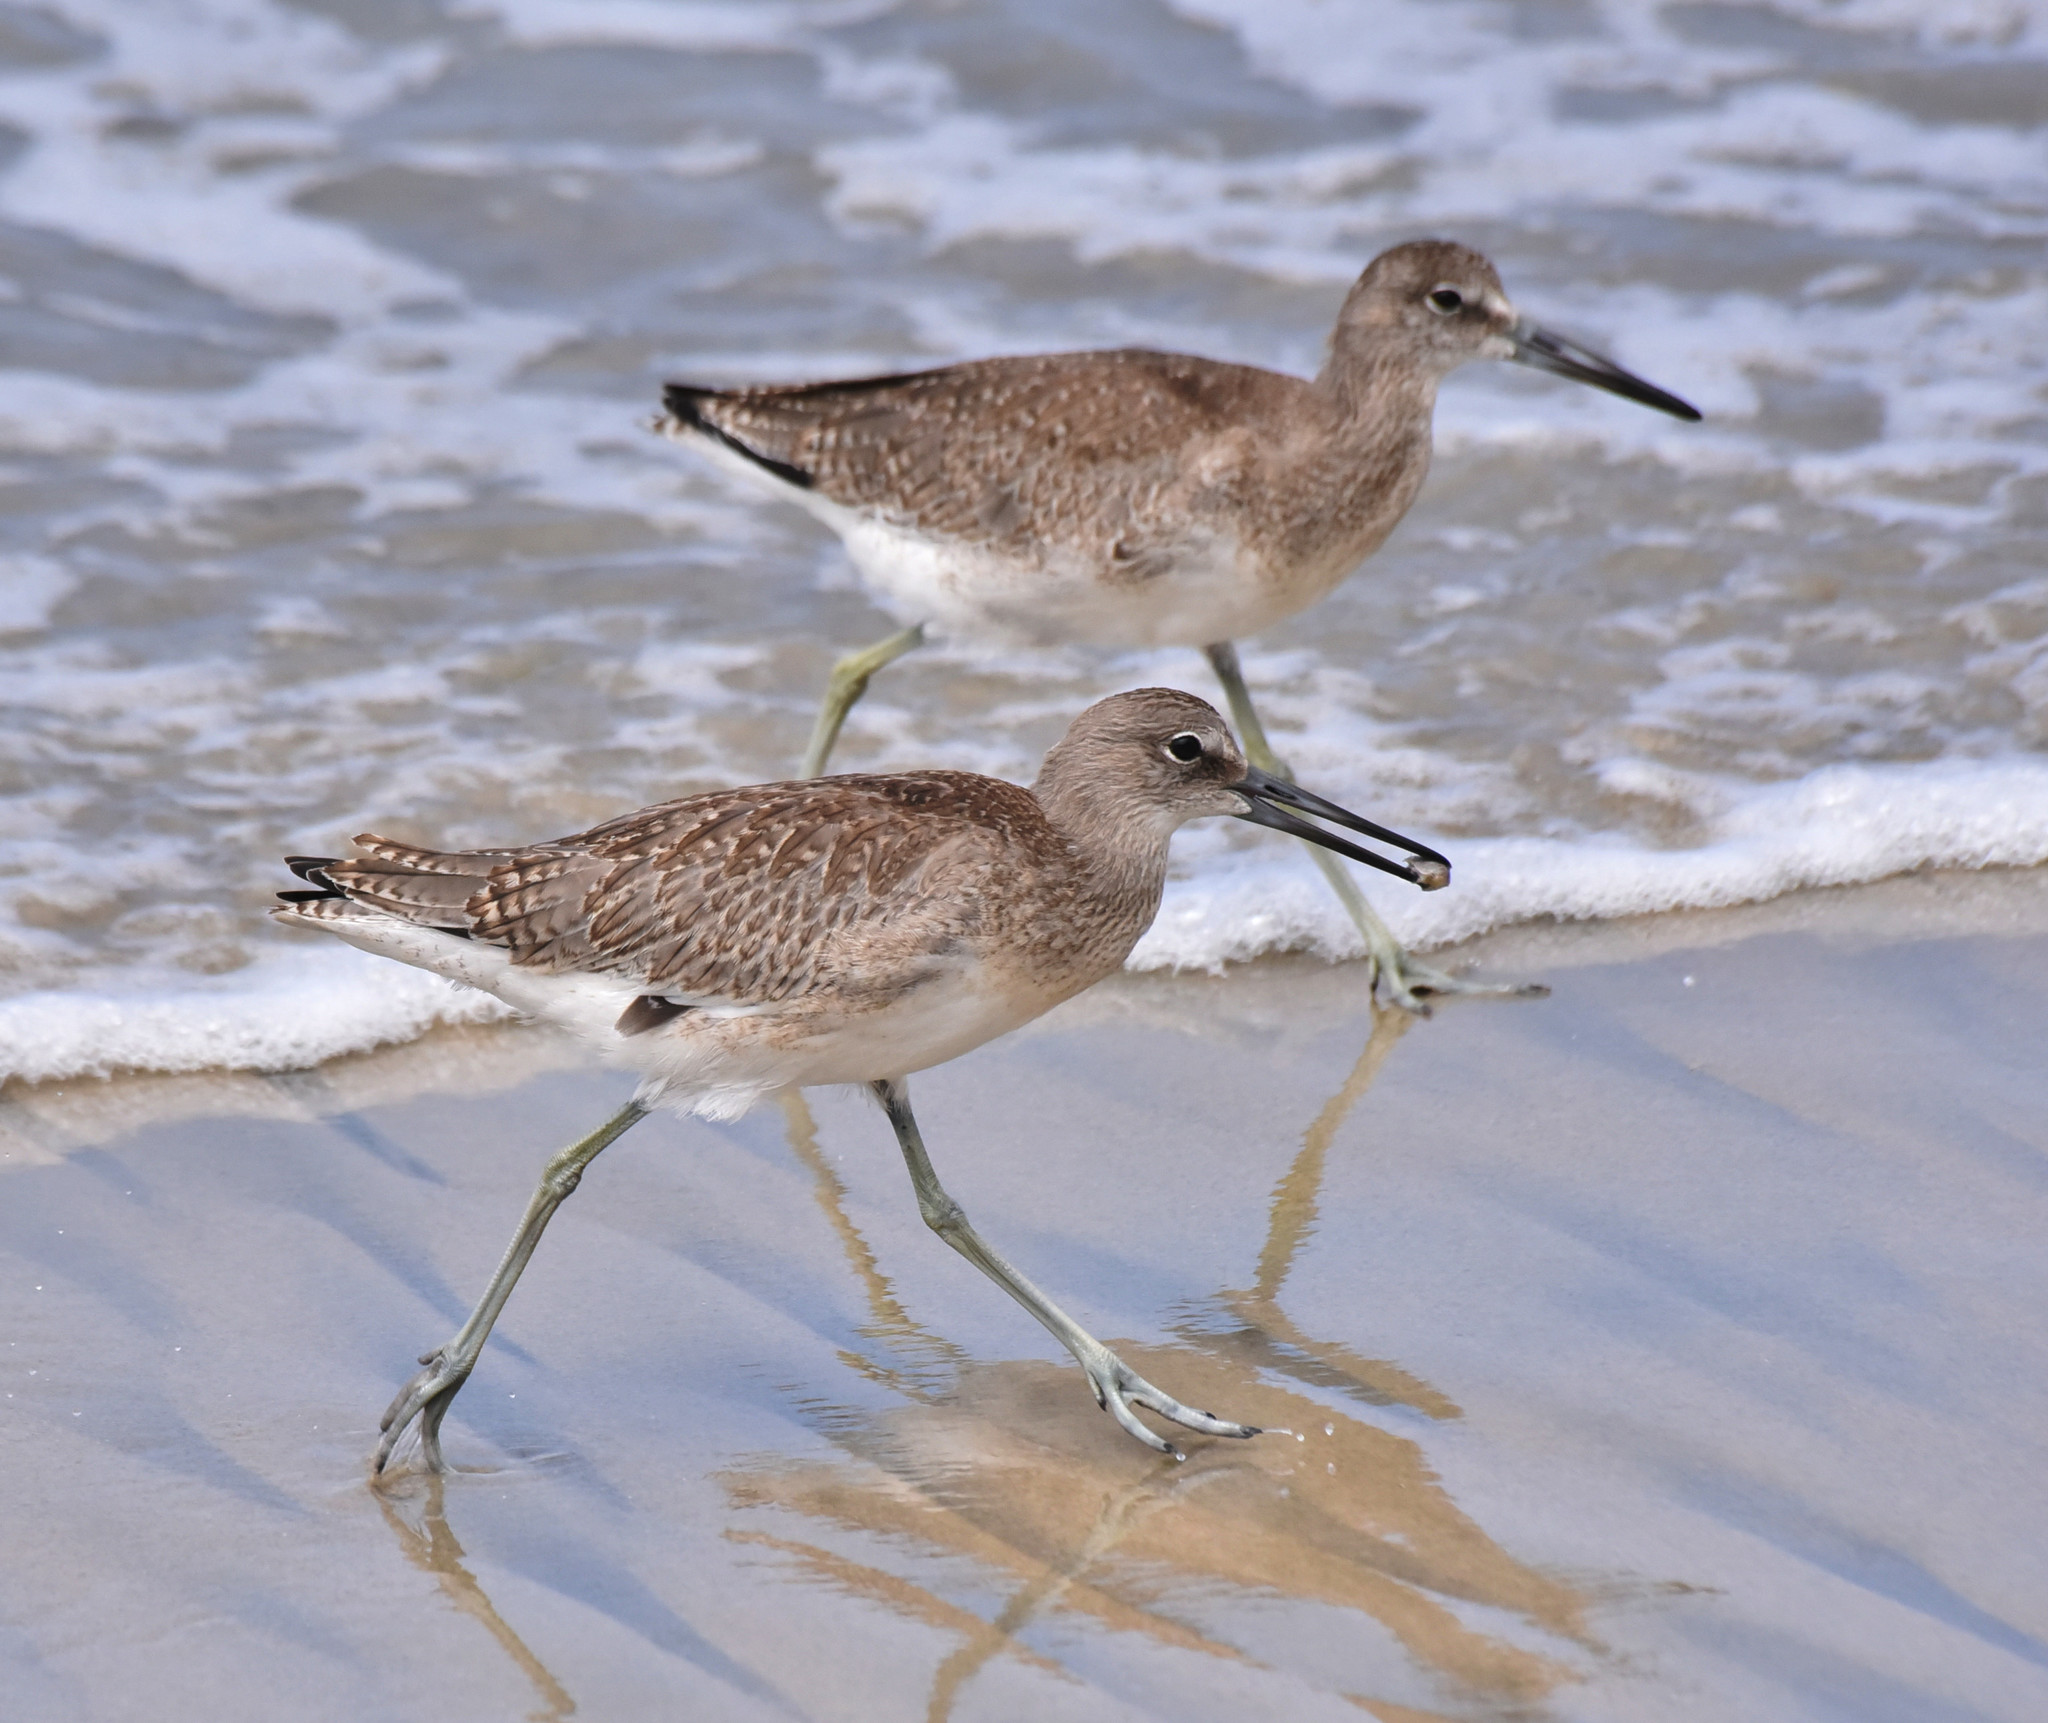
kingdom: Animalia
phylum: Chordata
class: Aves
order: Charadriiformes
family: Scolopacidae
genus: Tringa
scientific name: Tringa semipalmata
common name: Willet
